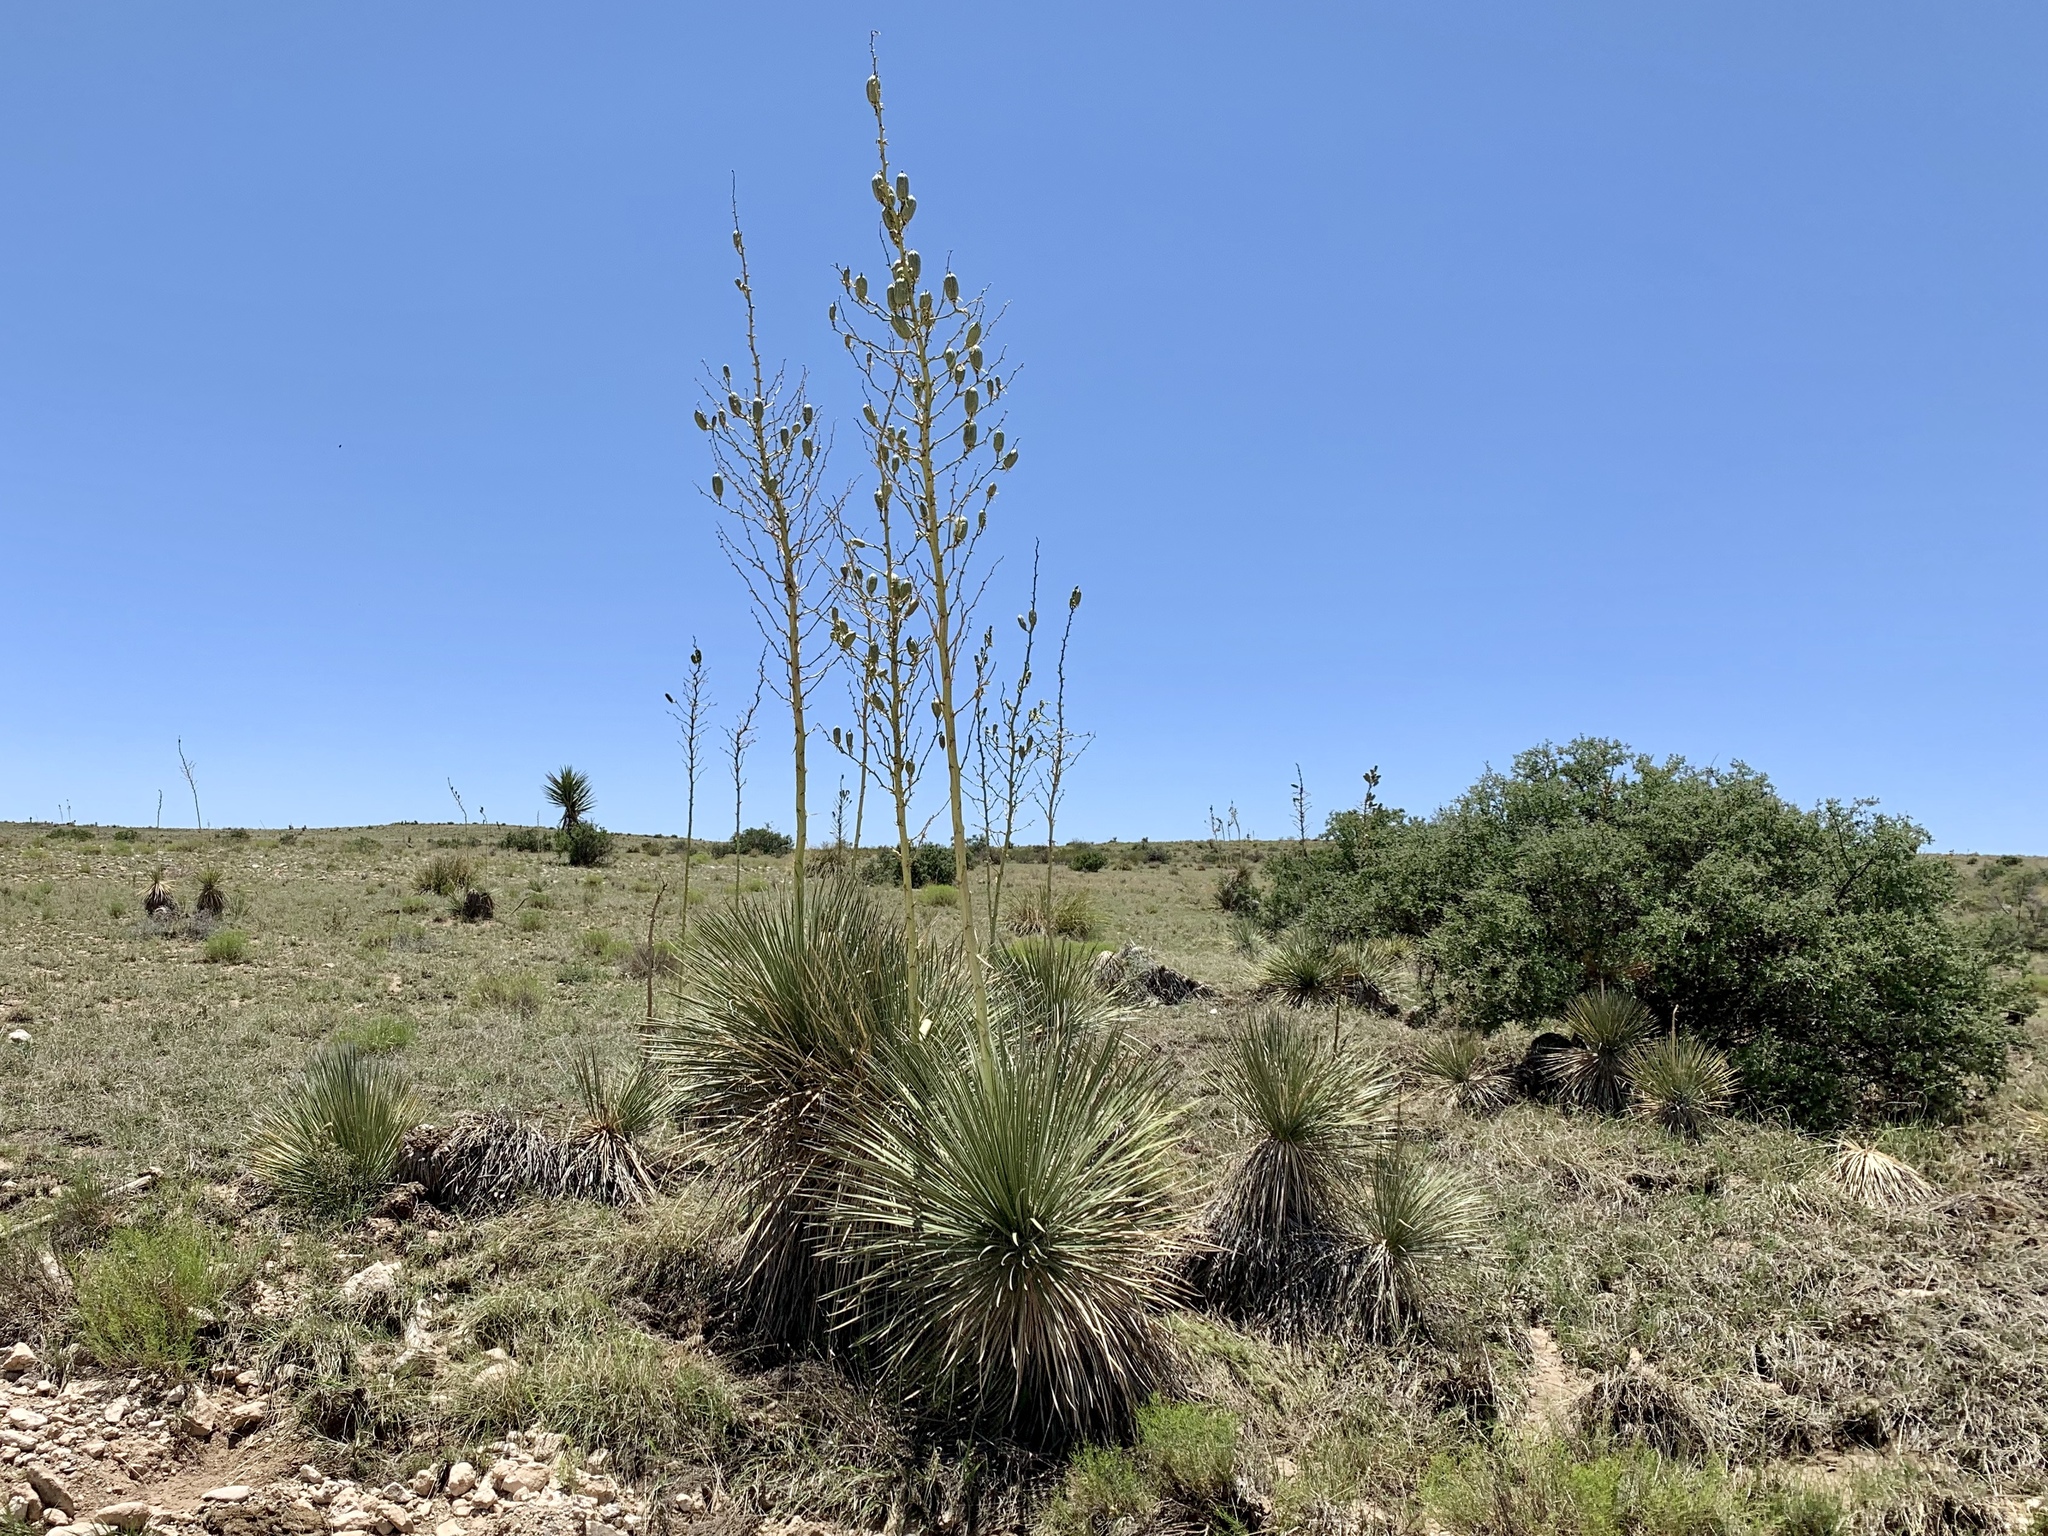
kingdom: Plantae
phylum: Tracheophyta
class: Liliopsida
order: Asparagales
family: Asparagaceae
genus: Yucca
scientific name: Yucca elata
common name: Palmella
